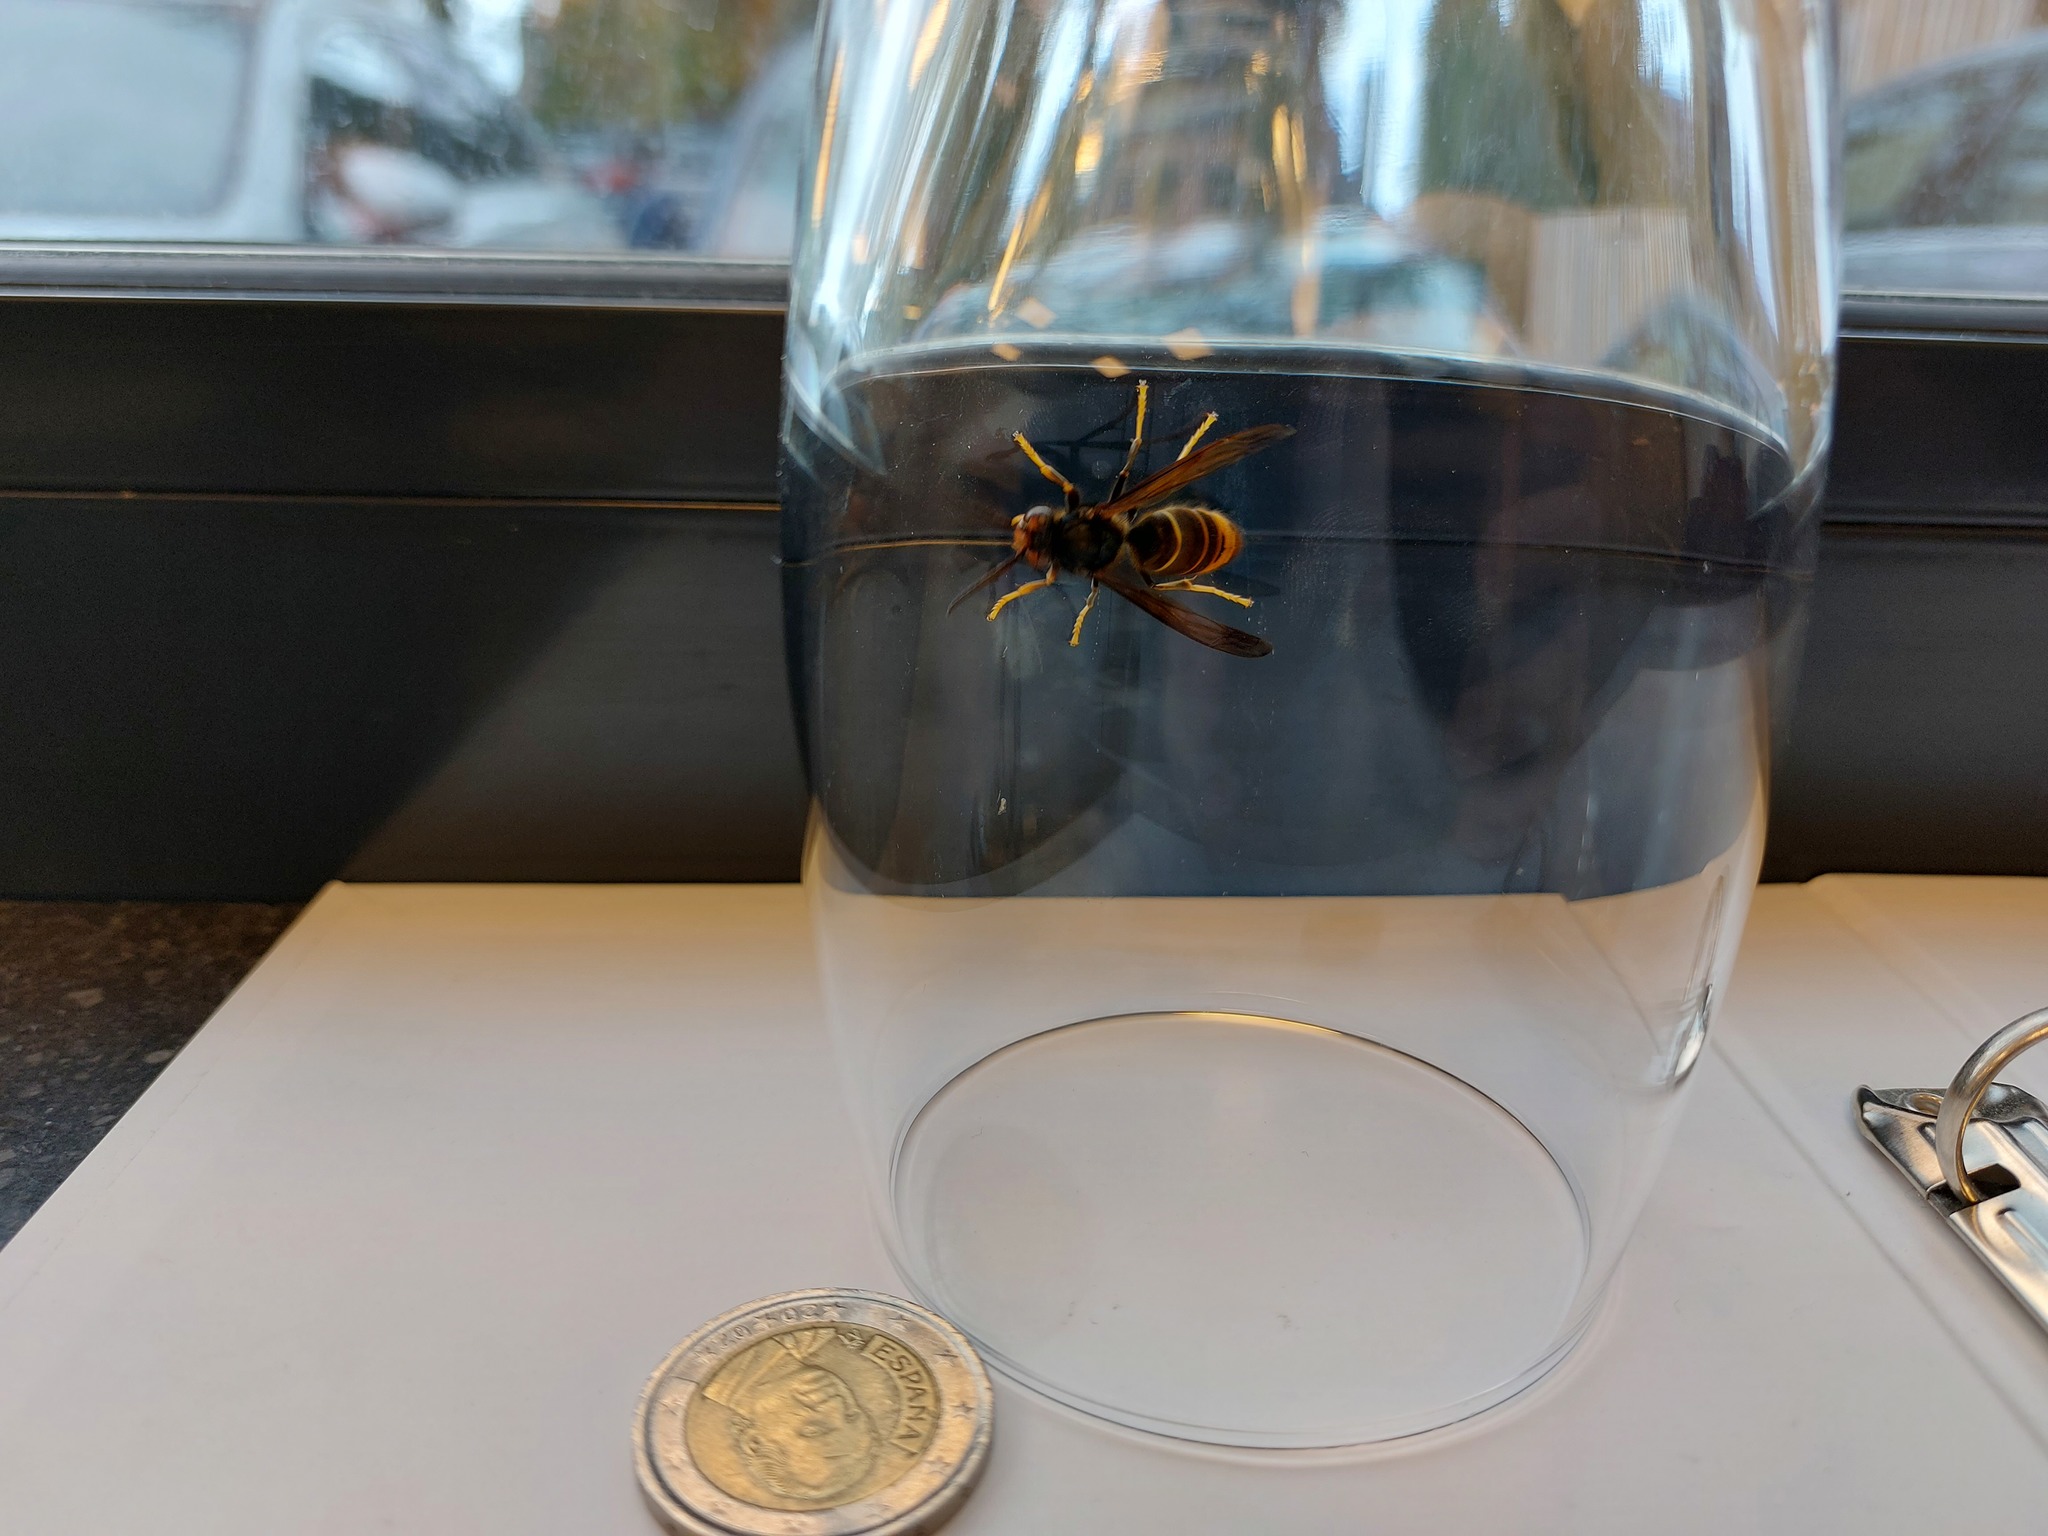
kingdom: Animalia
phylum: Arthropoda
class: Insecta
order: Hymenoptera
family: Vespidae
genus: Vespa
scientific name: Vespa velutina
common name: Asian hornet
